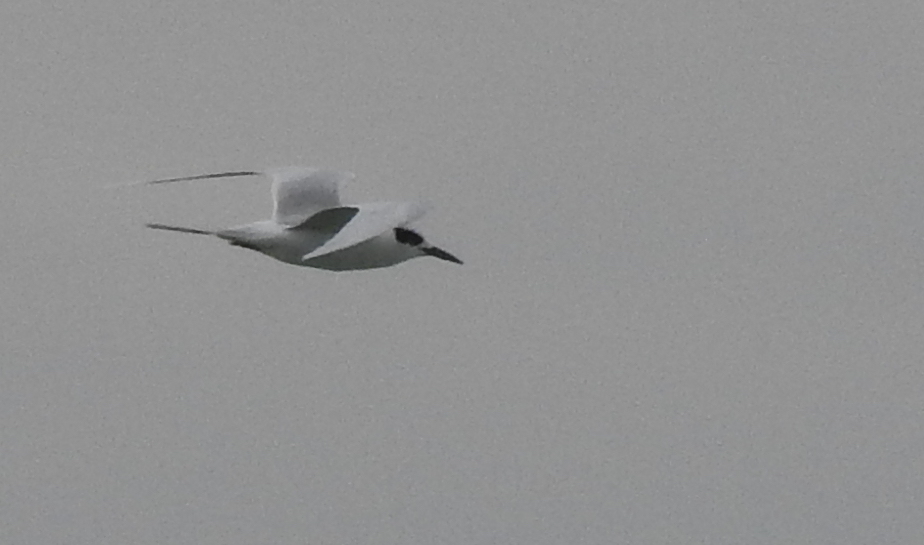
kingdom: Animalia
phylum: Chordata
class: Aves
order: Charadriiformes
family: Laridae
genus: Sterna
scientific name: Sterna forsteri
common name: Forster's tern
